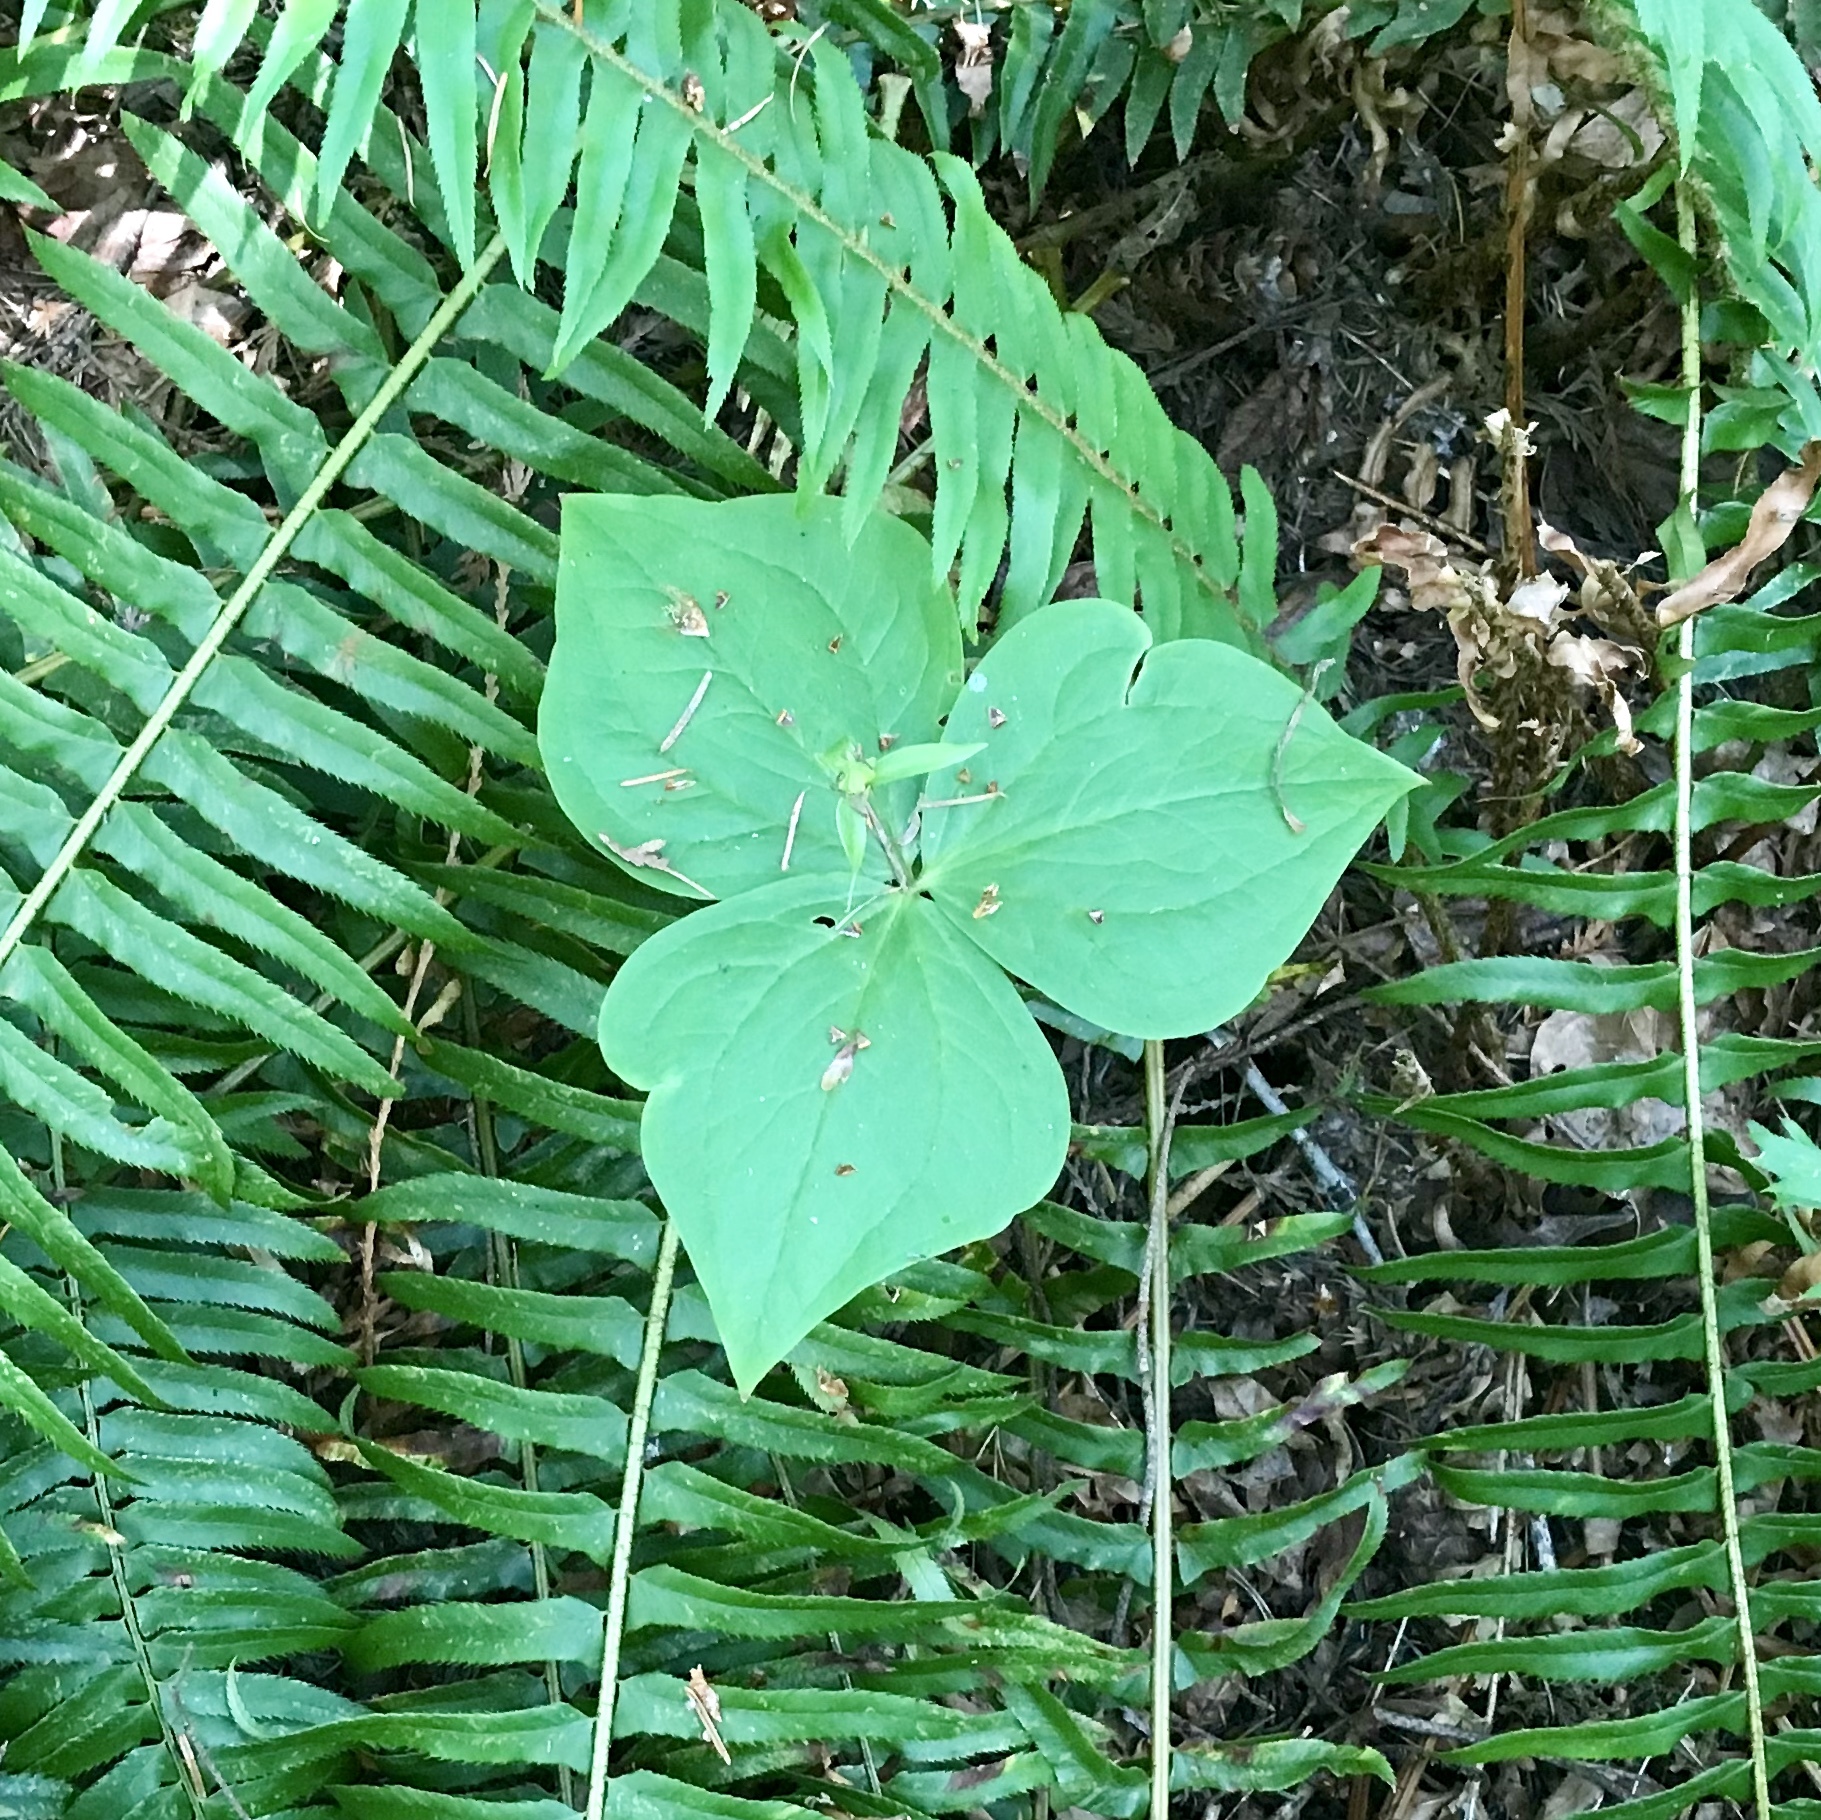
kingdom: Plantae
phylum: Tracheophyta
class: Liliopsida
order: Liliales
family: Melanthiaceae
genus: Trillium
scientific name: Trillium ovatum
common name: Pacific trillium
